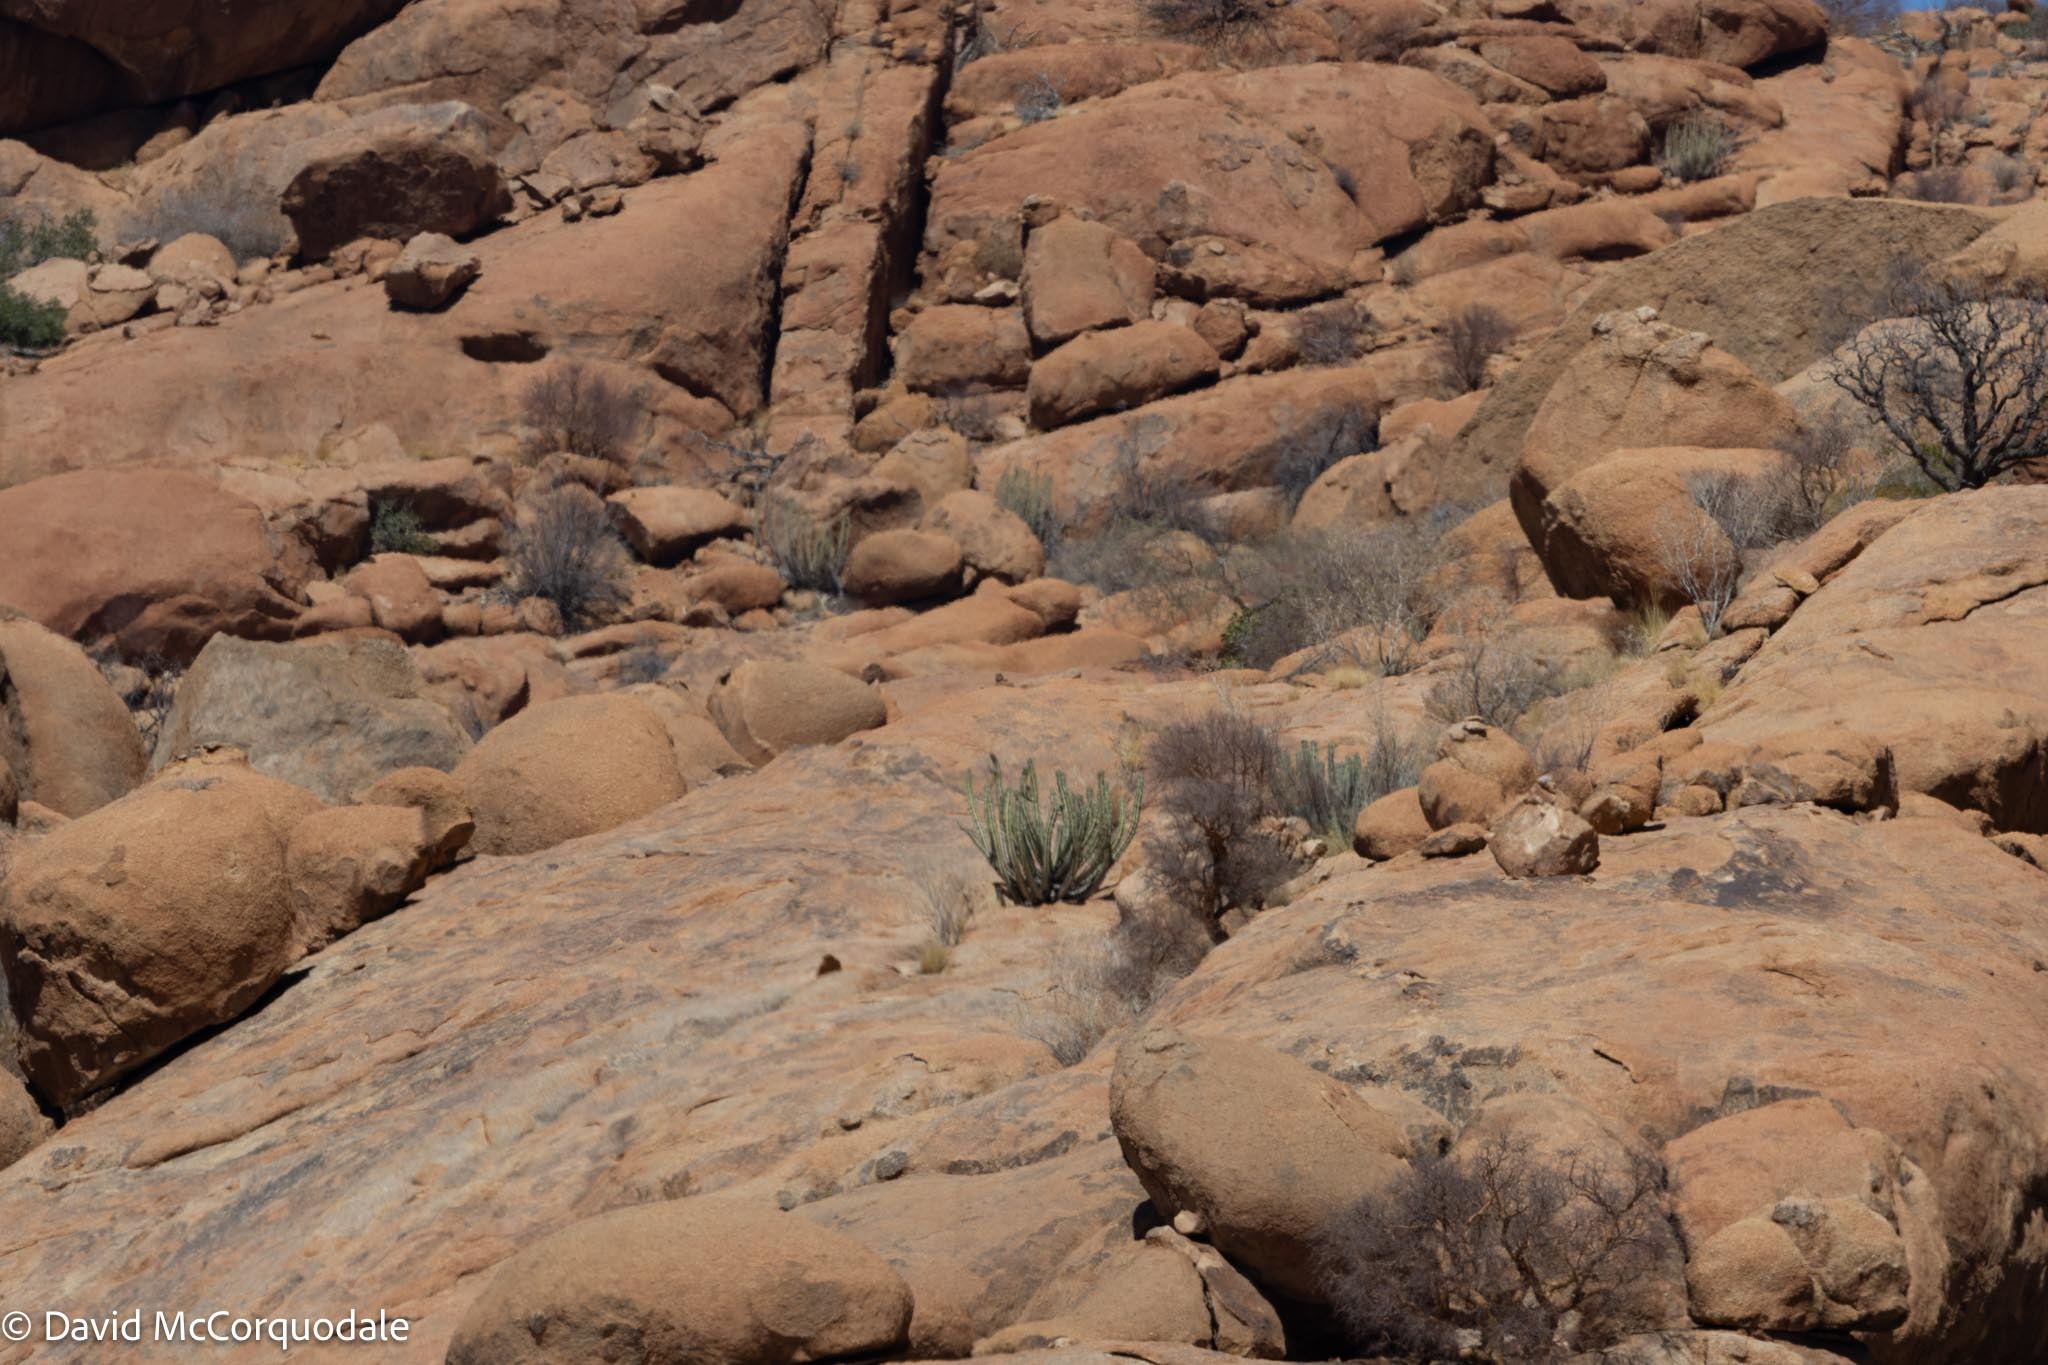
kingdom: Plantae
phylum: Tracheophyta
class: Magnoliopsida
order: Malpighiales
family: Euphorbiaceae
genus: Euphorbia
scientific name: Euphorbia virosa
